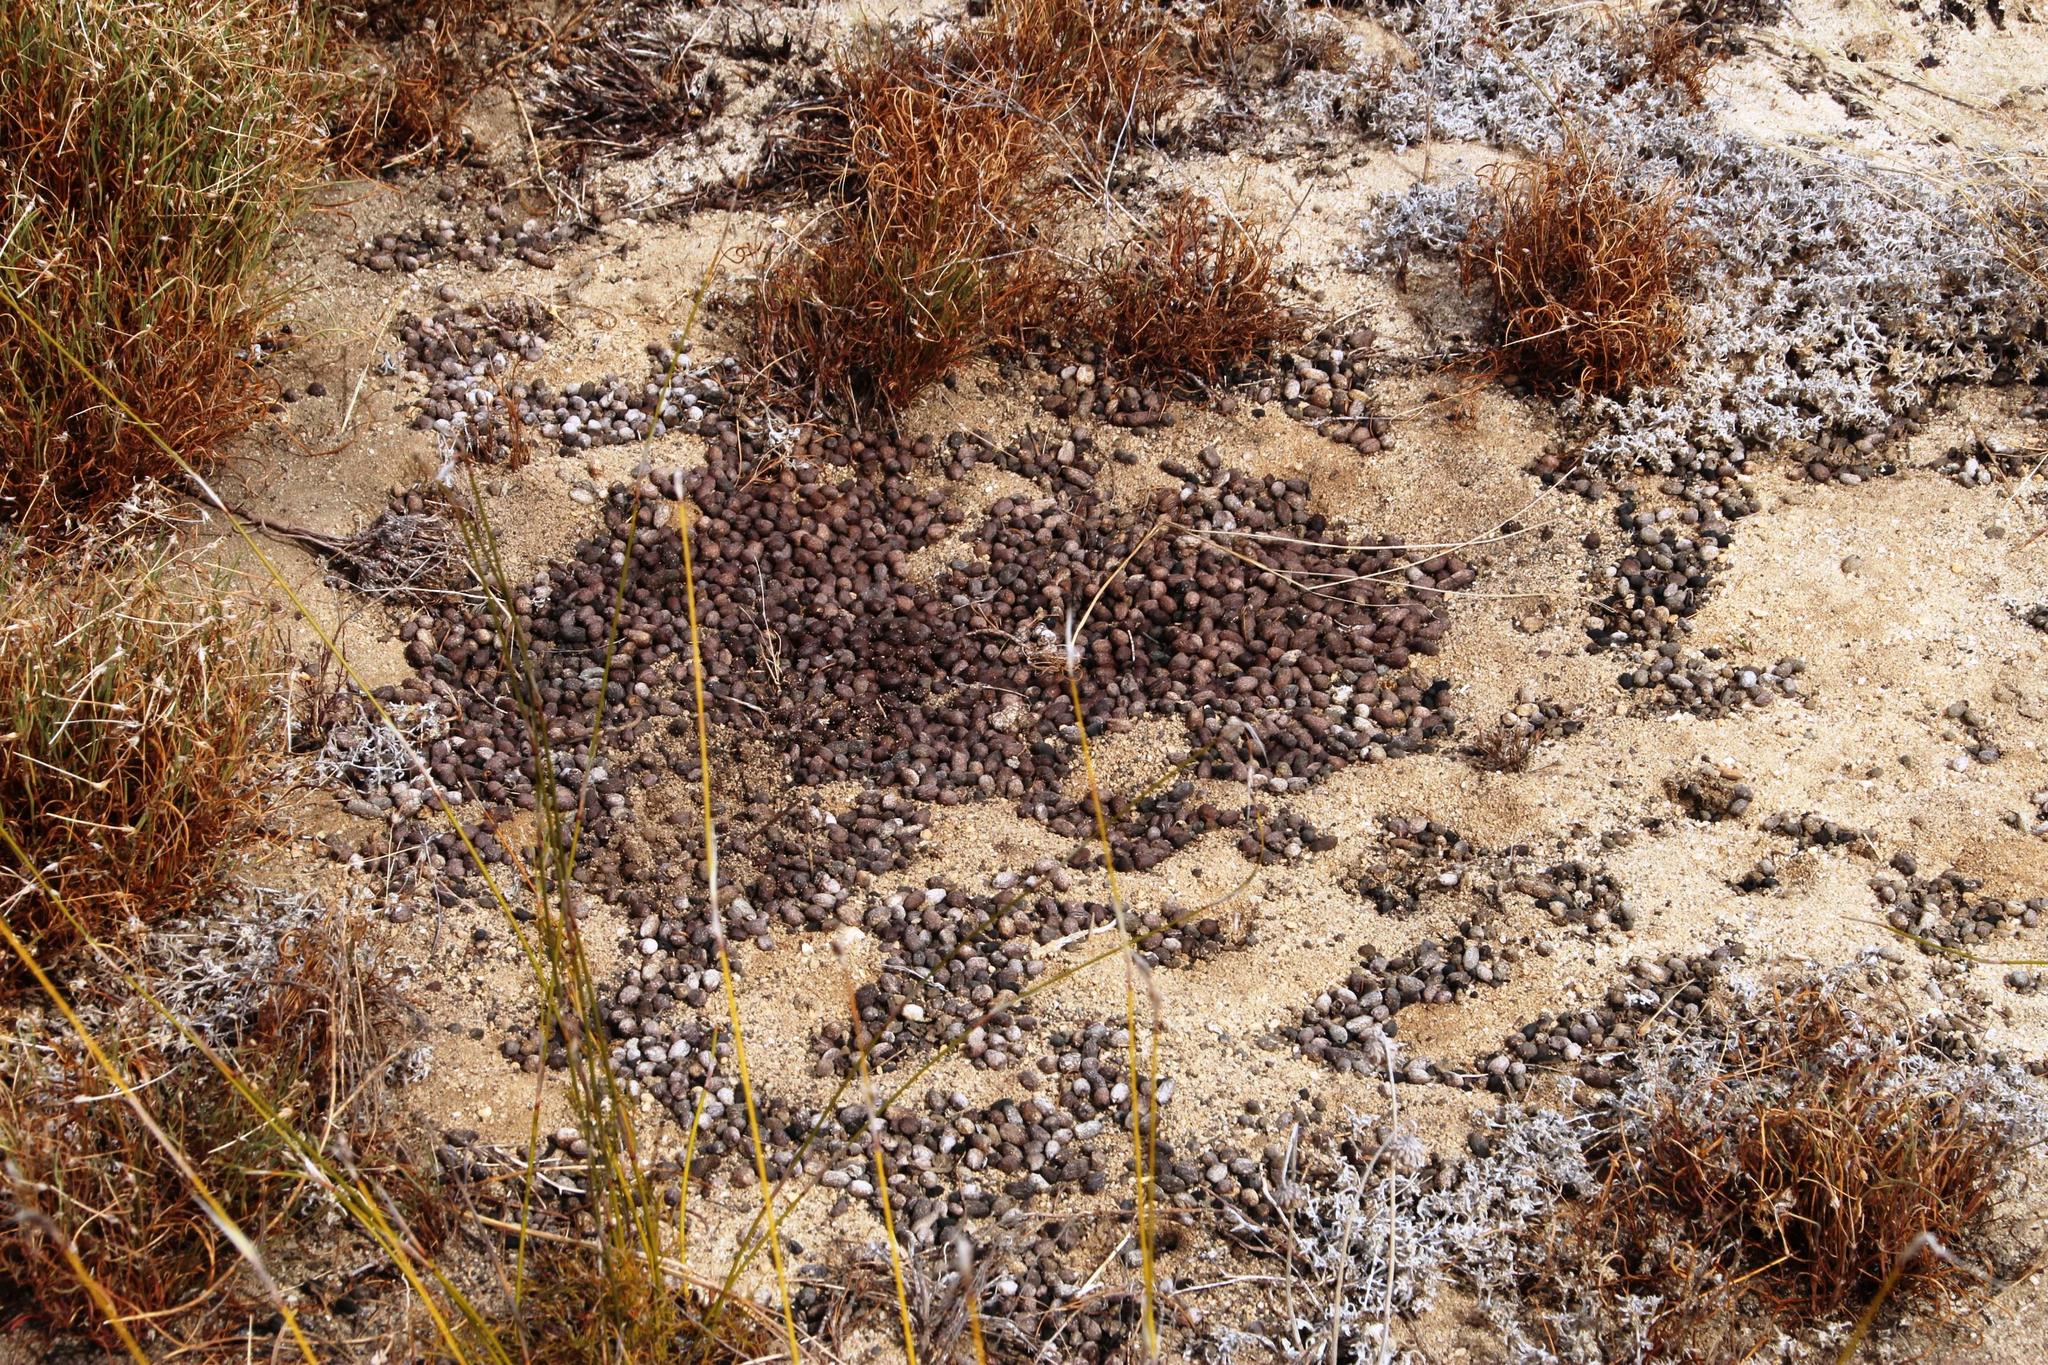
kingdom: Animalia
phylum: Chordata
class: Mammalia
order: Artiodactyla
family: Bovidae
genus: Pelea
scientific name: Pelea capreolus
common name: Common rhebok
